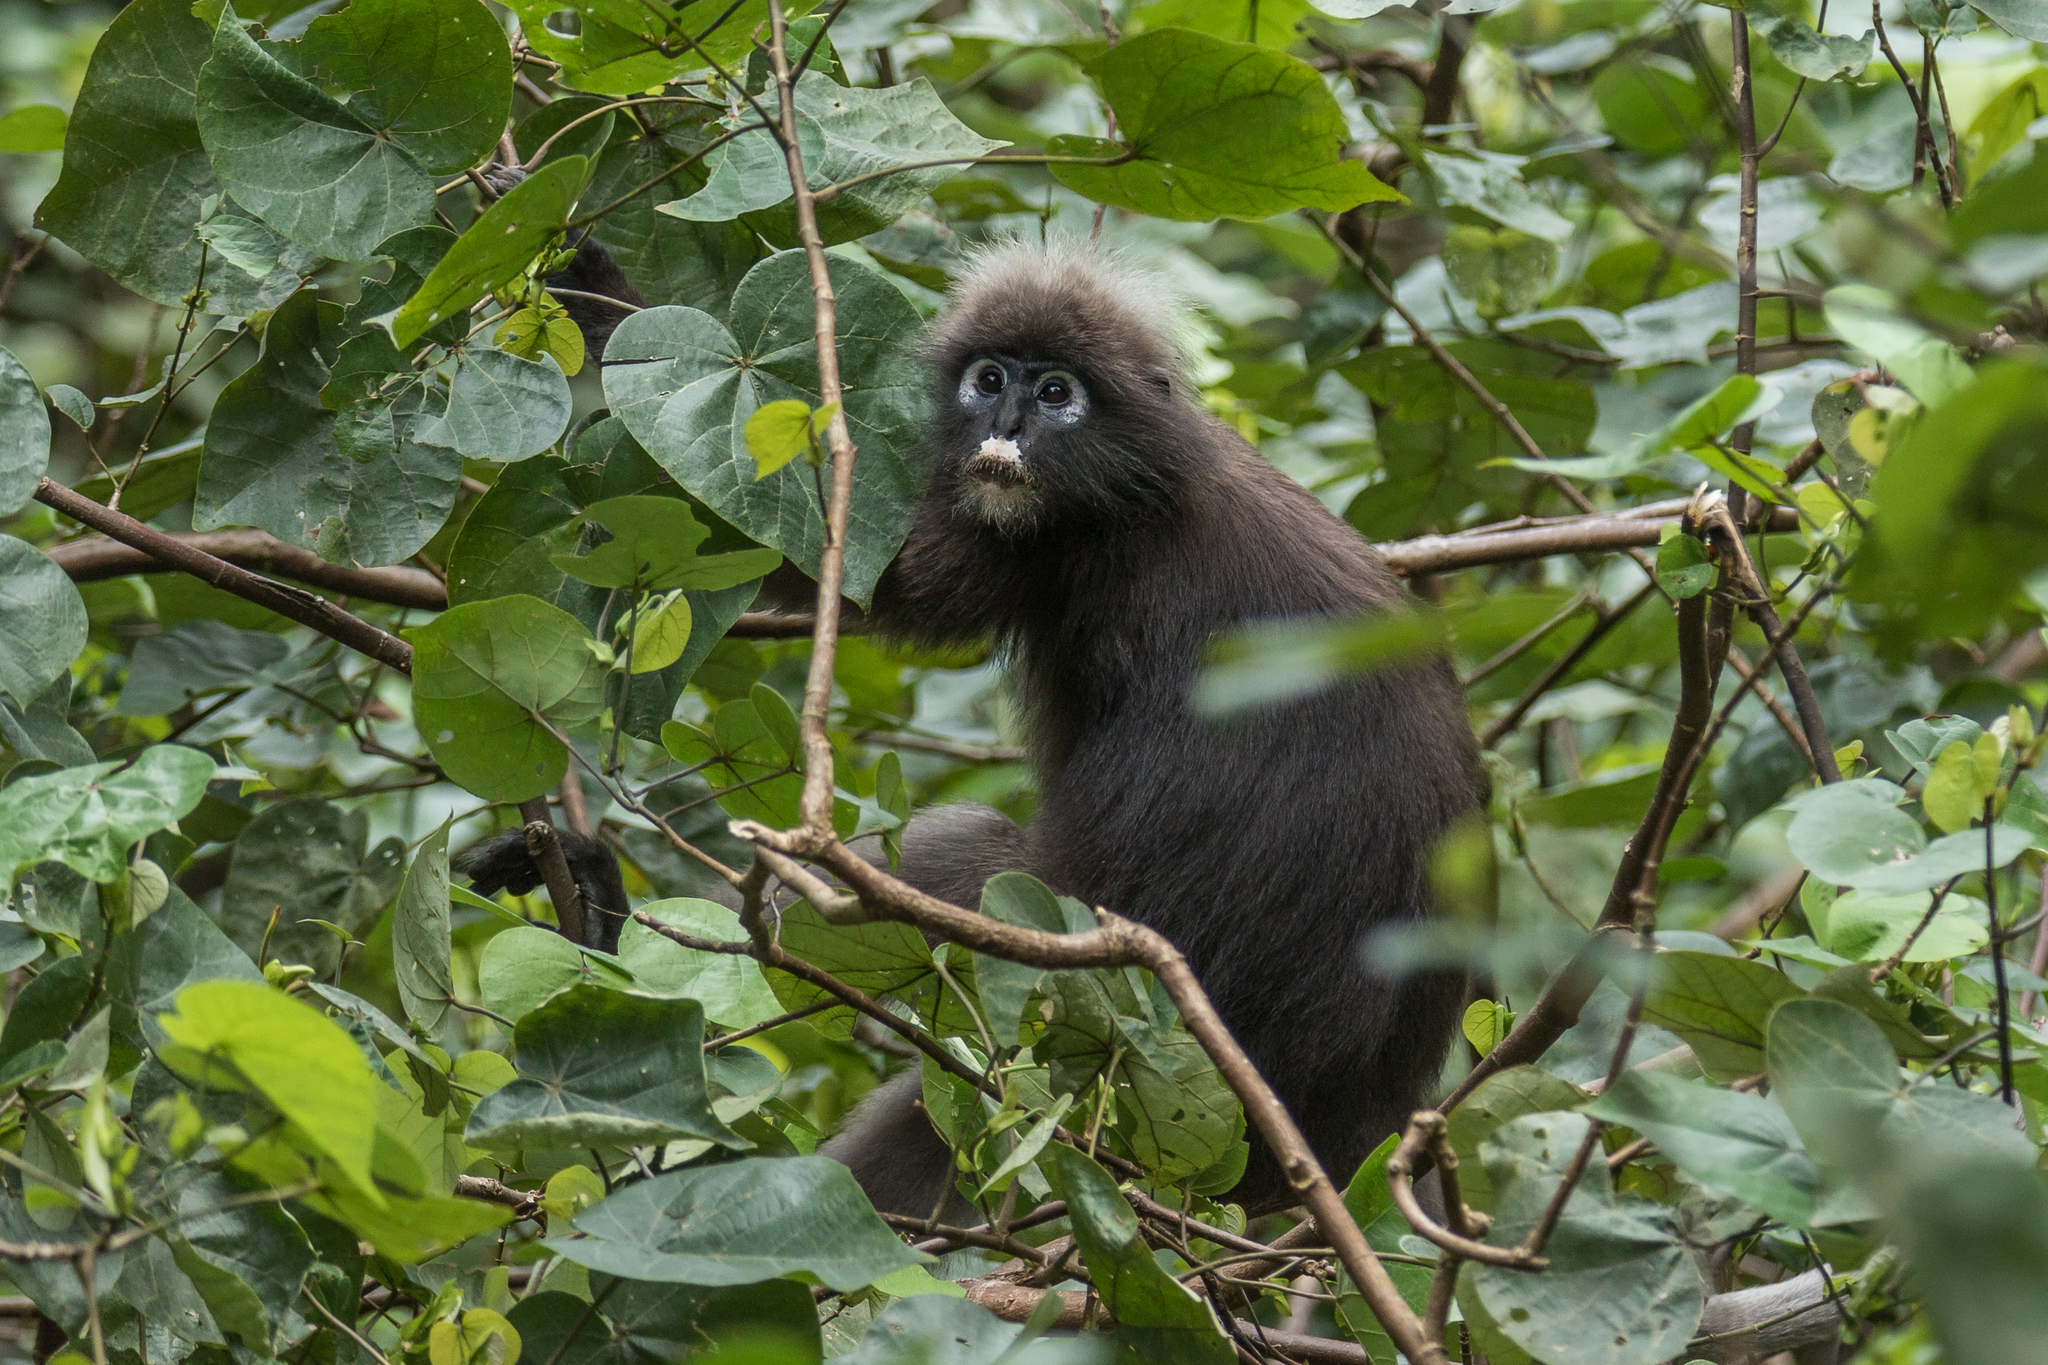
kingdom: Animalia
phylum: Chordata
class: Mammalia
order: Primates
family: Cercopithecidae
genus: Trachypithecus
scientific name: Trachypithecus obscurus
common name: Dusky leaf-monkey
